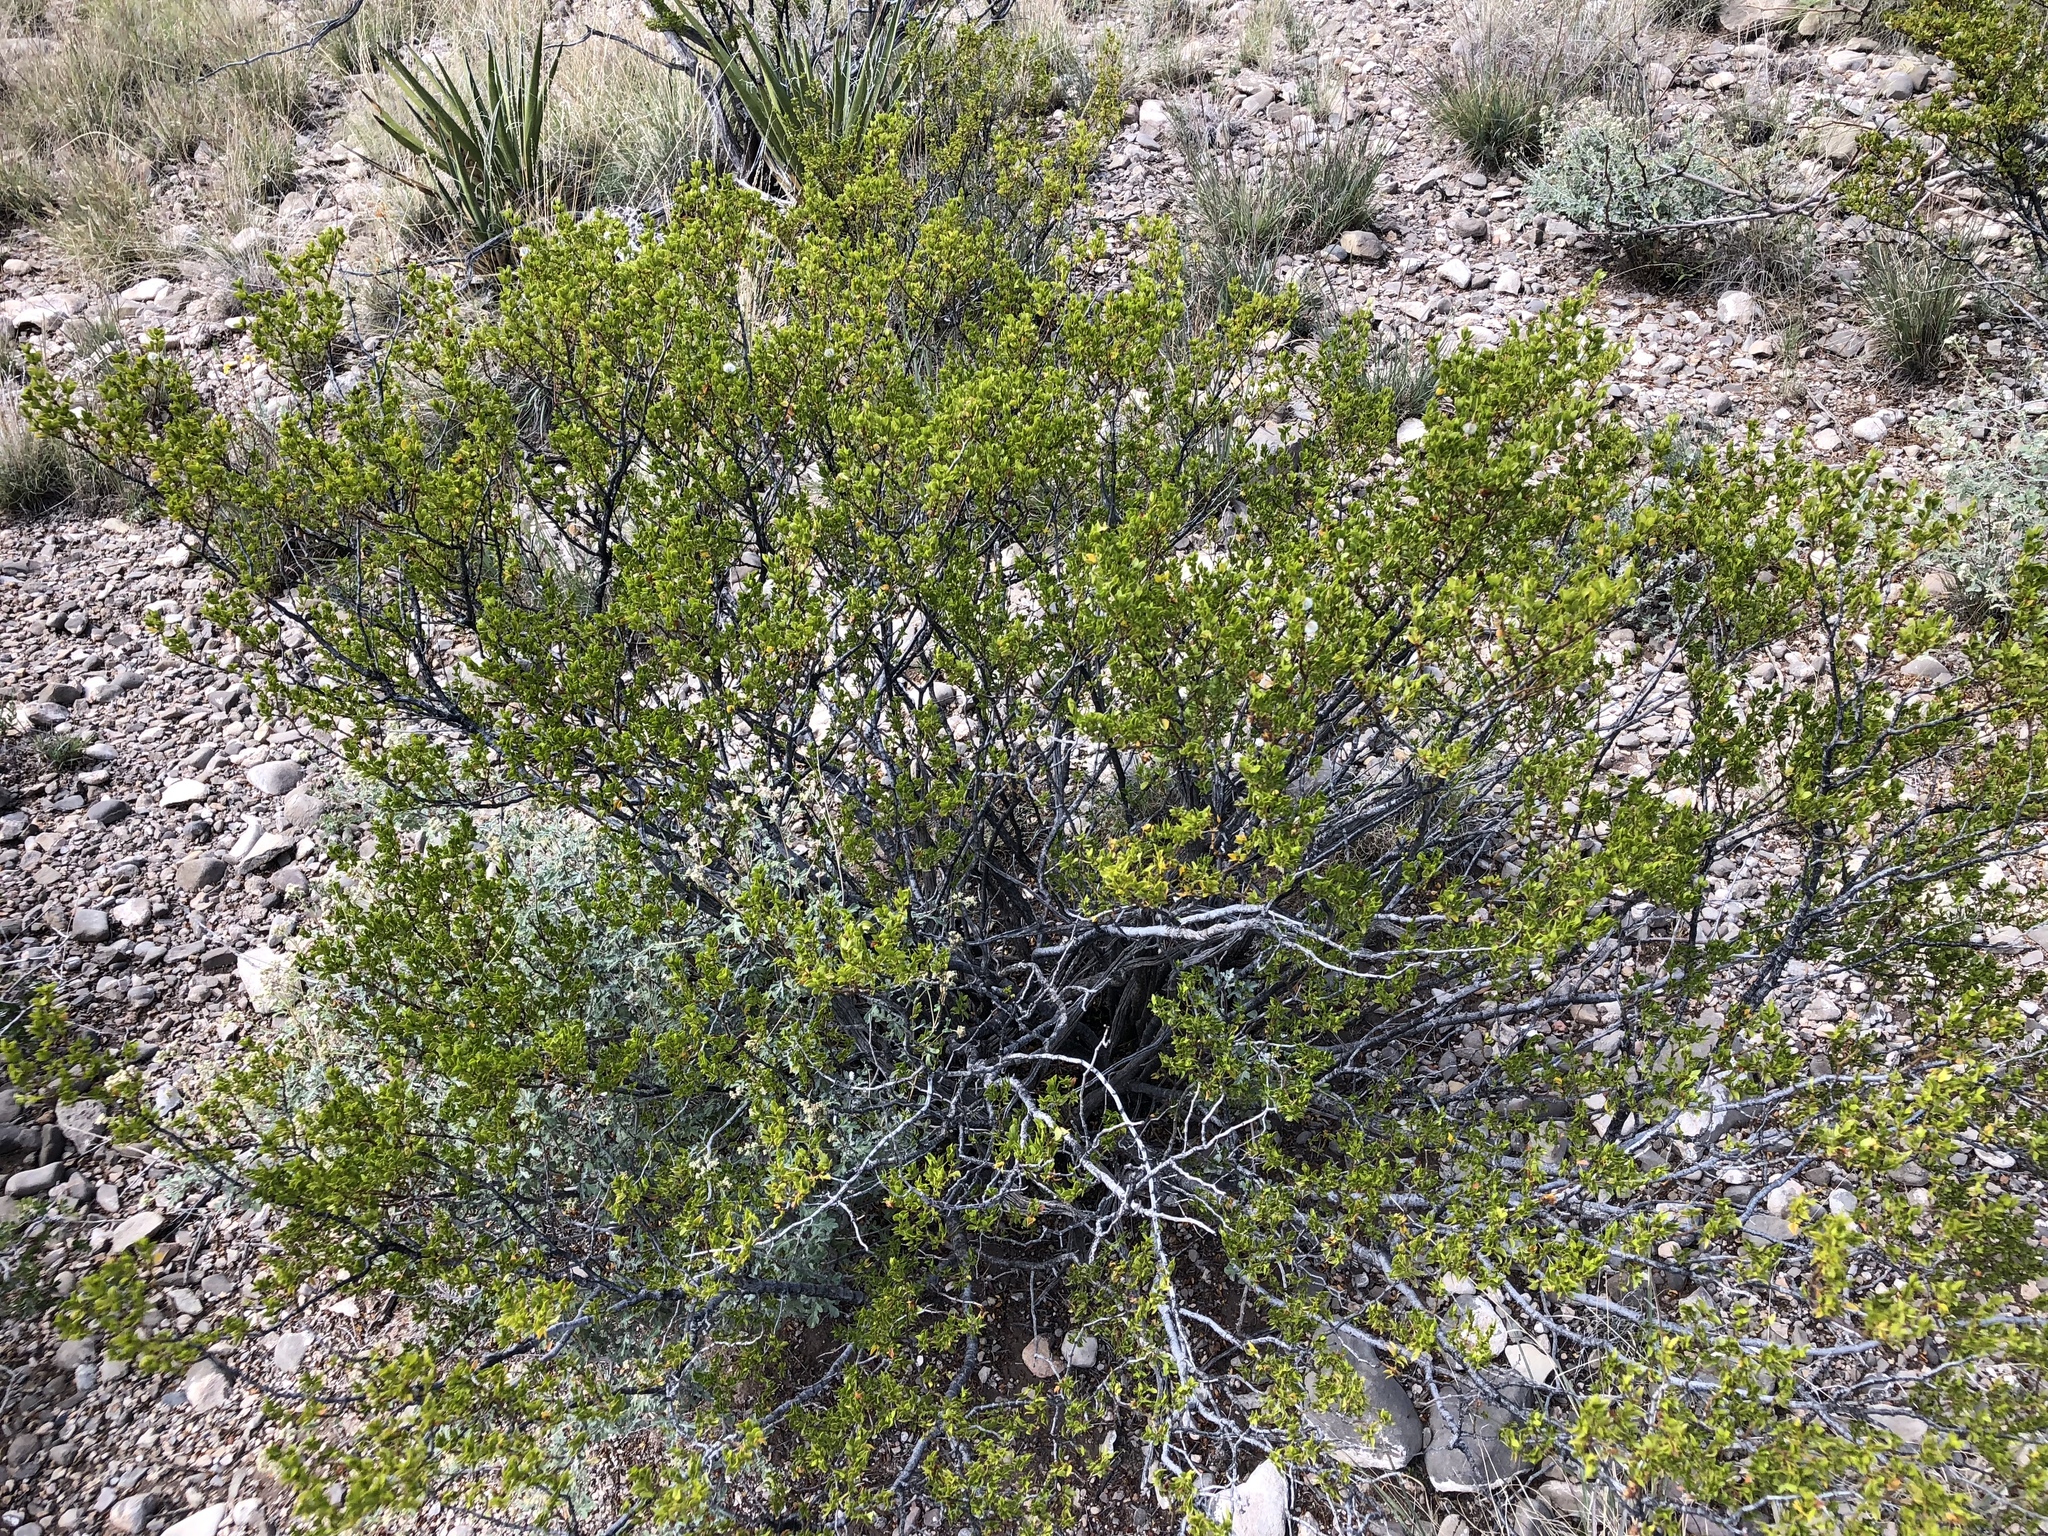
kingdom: Plantae
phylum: Tracheophyta
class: Magnoliopsida
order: Zygophyllales
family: Zygophyllaceae
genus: Larrea
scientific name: Larrea tridentata
